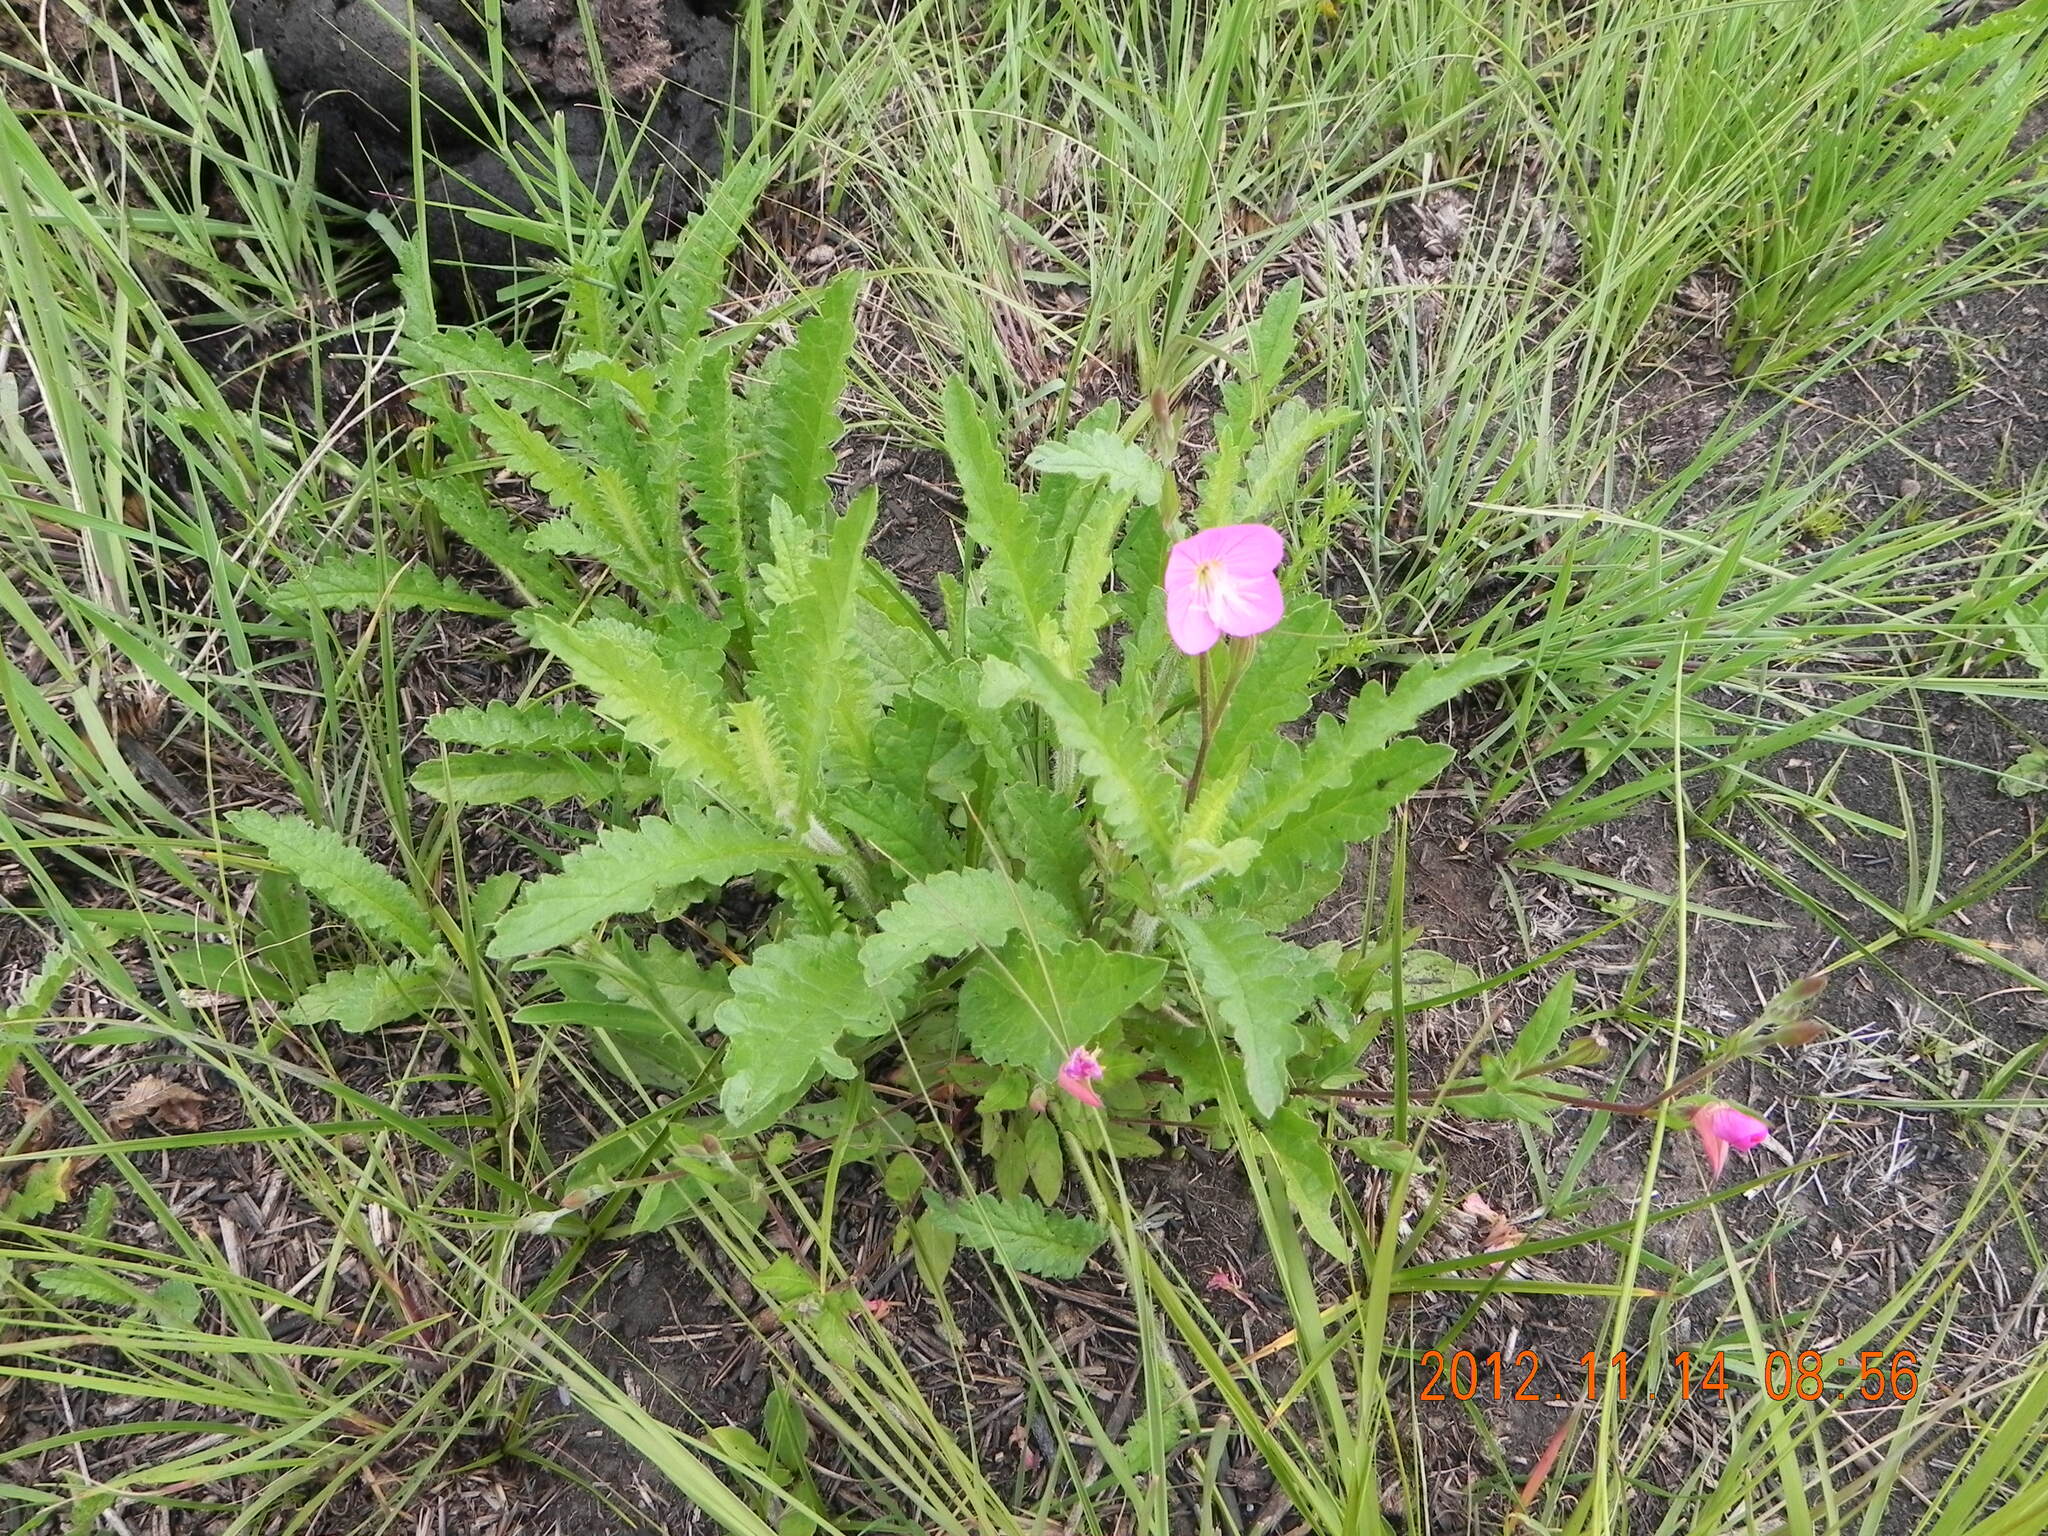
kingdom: Plantae
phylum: Tracheophyta
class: Magnoliopsida
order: Myrtales
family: Onagraceae
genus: Oenothera
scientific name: Oenothera rosea
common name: Rosy evening-primrose
